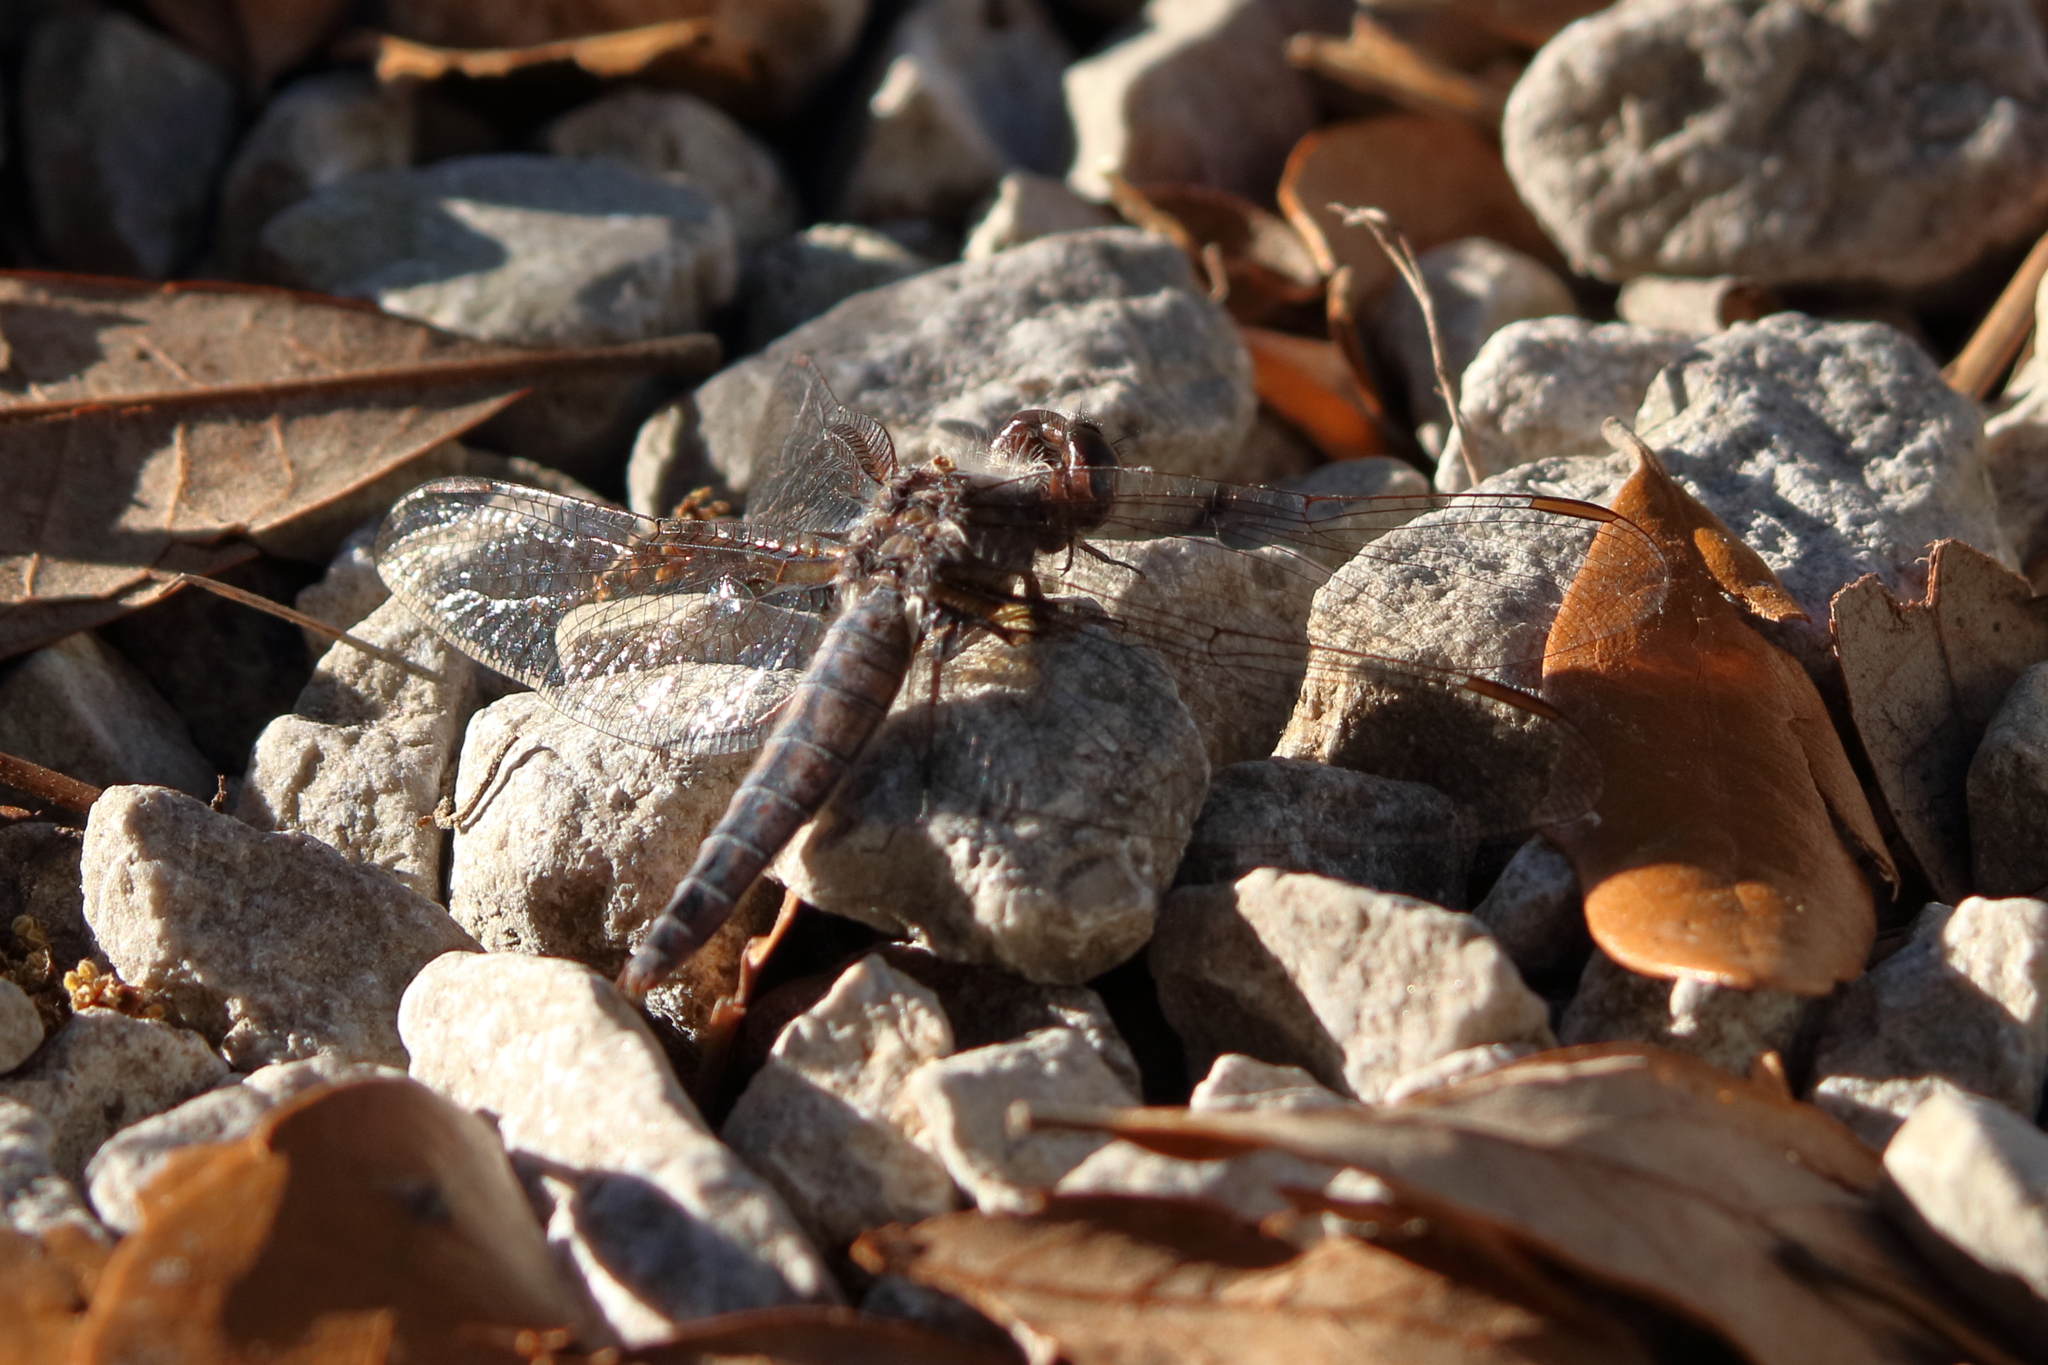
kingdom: Animalia
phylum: Arthropoda
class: Insecta
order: Odonata
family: Libellulidae
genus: Ladona
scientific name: Ladona deplanata
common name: Blue corporal
